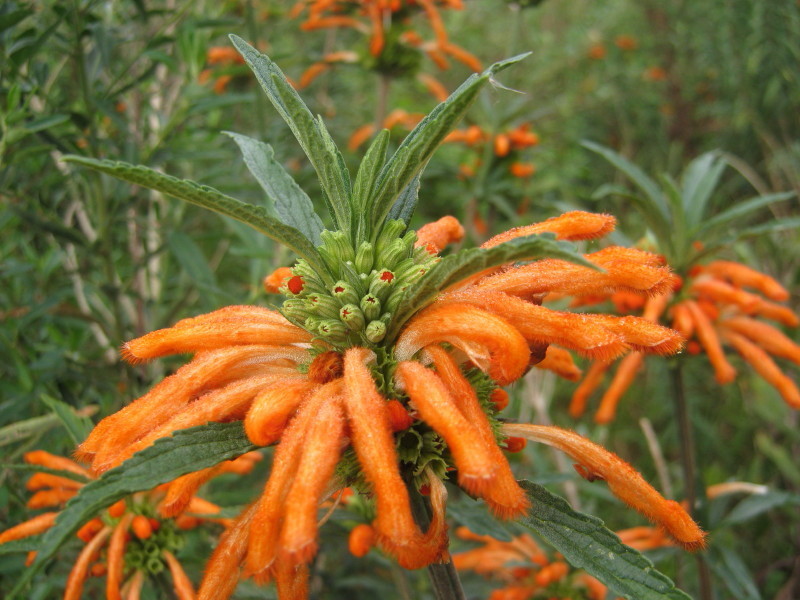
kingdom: Plantae
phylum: Tracheophyta
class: Magnoliopsida
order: Lamiales
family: Lamiaceae
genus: Leonotis
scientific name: Leonotis leonurus
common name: Lion's ear
